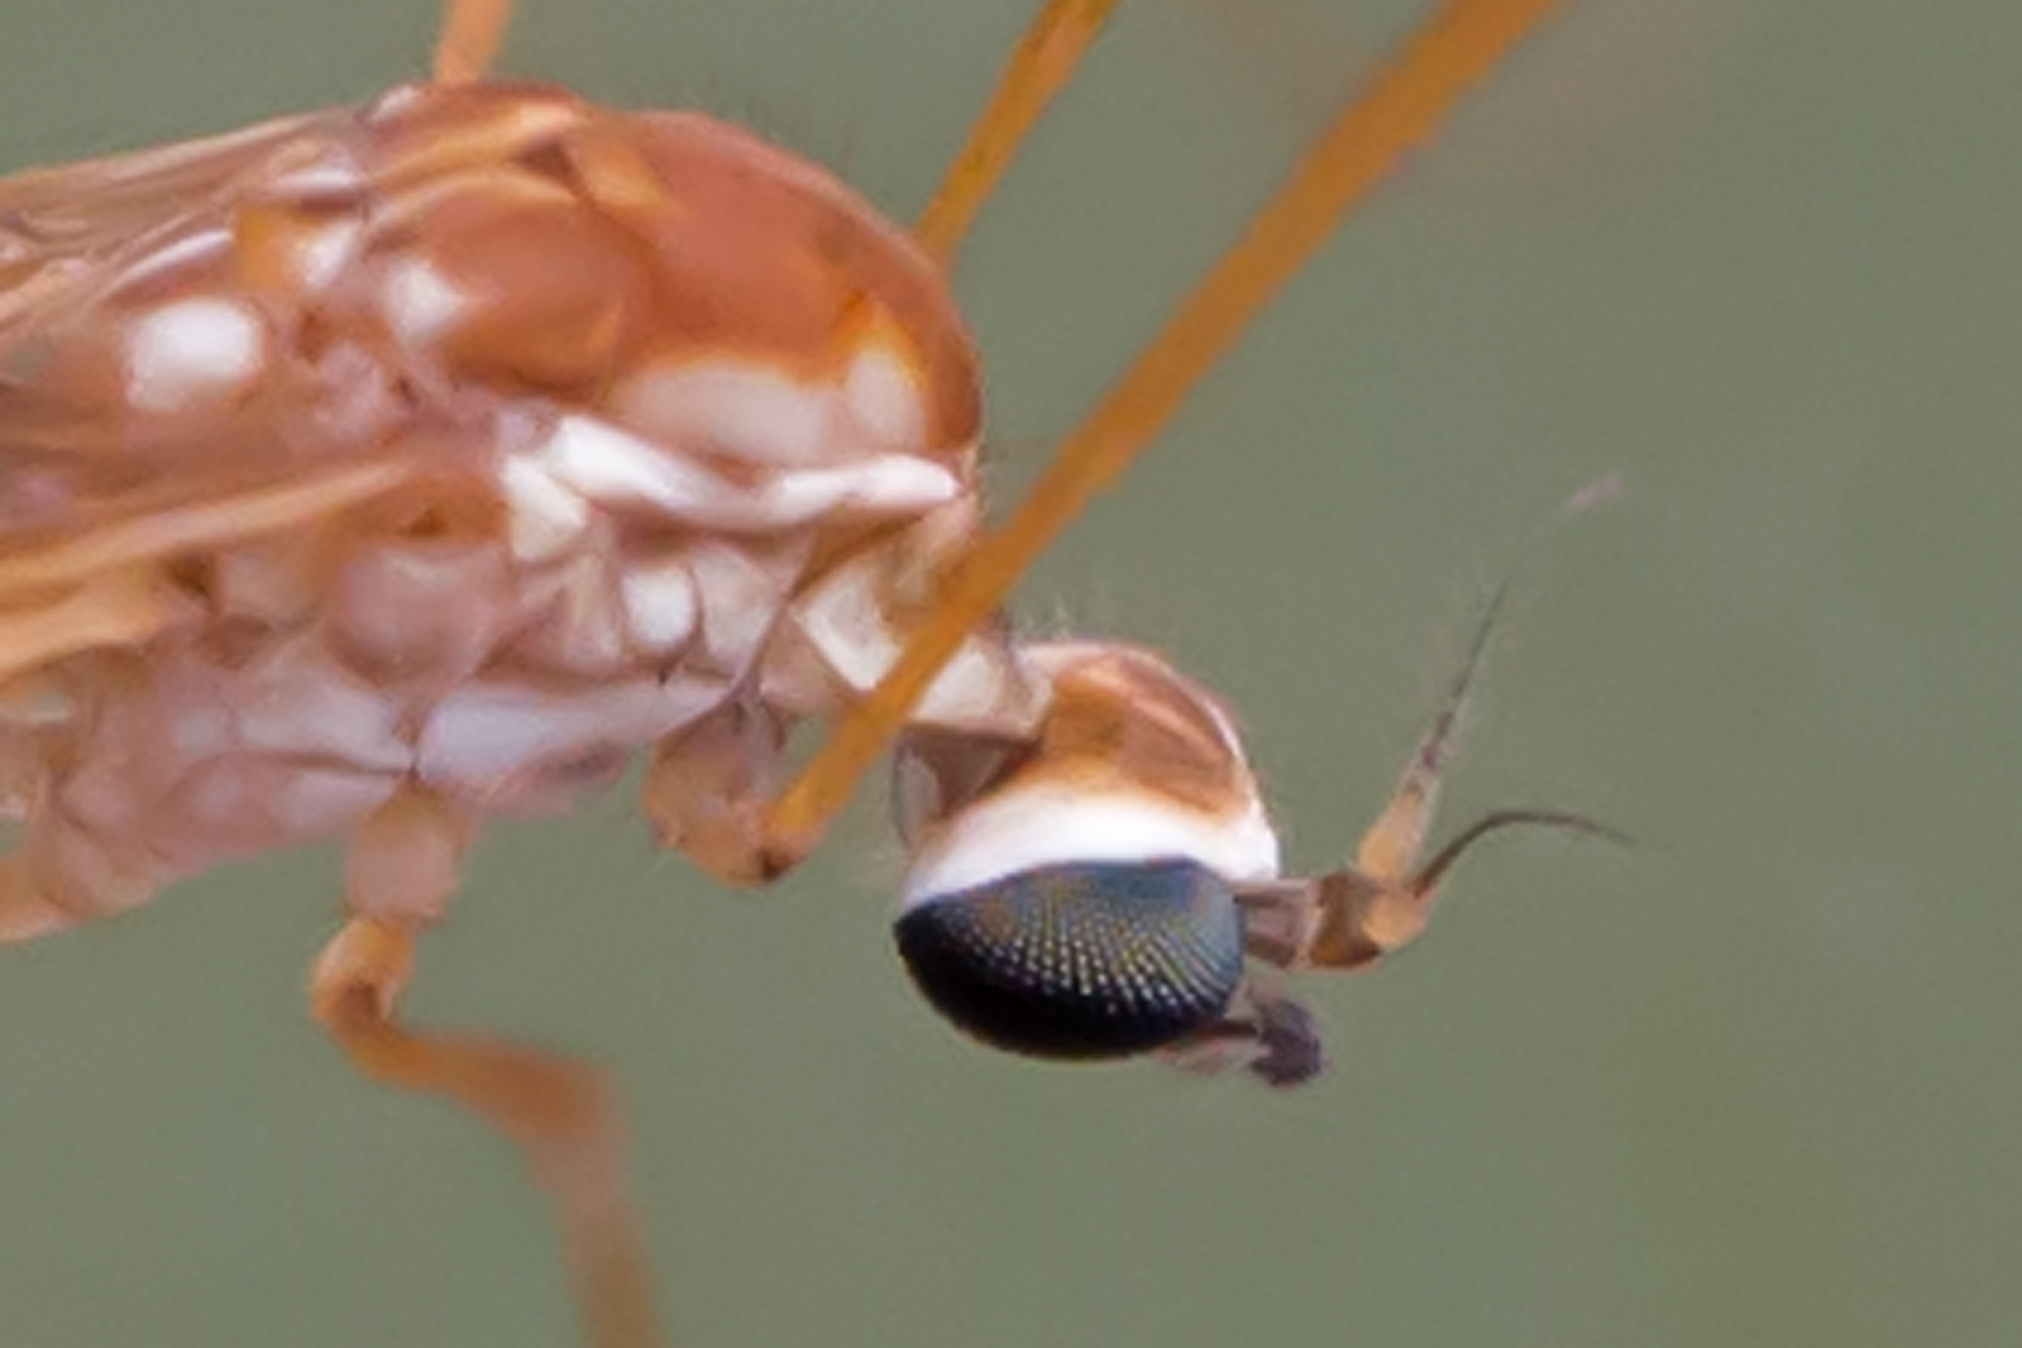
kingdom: Animalia
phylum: Arthropoda
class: Insecta
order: Diptera
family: Limoniidae
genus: Erioptera
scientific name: Erioptera vespertina
